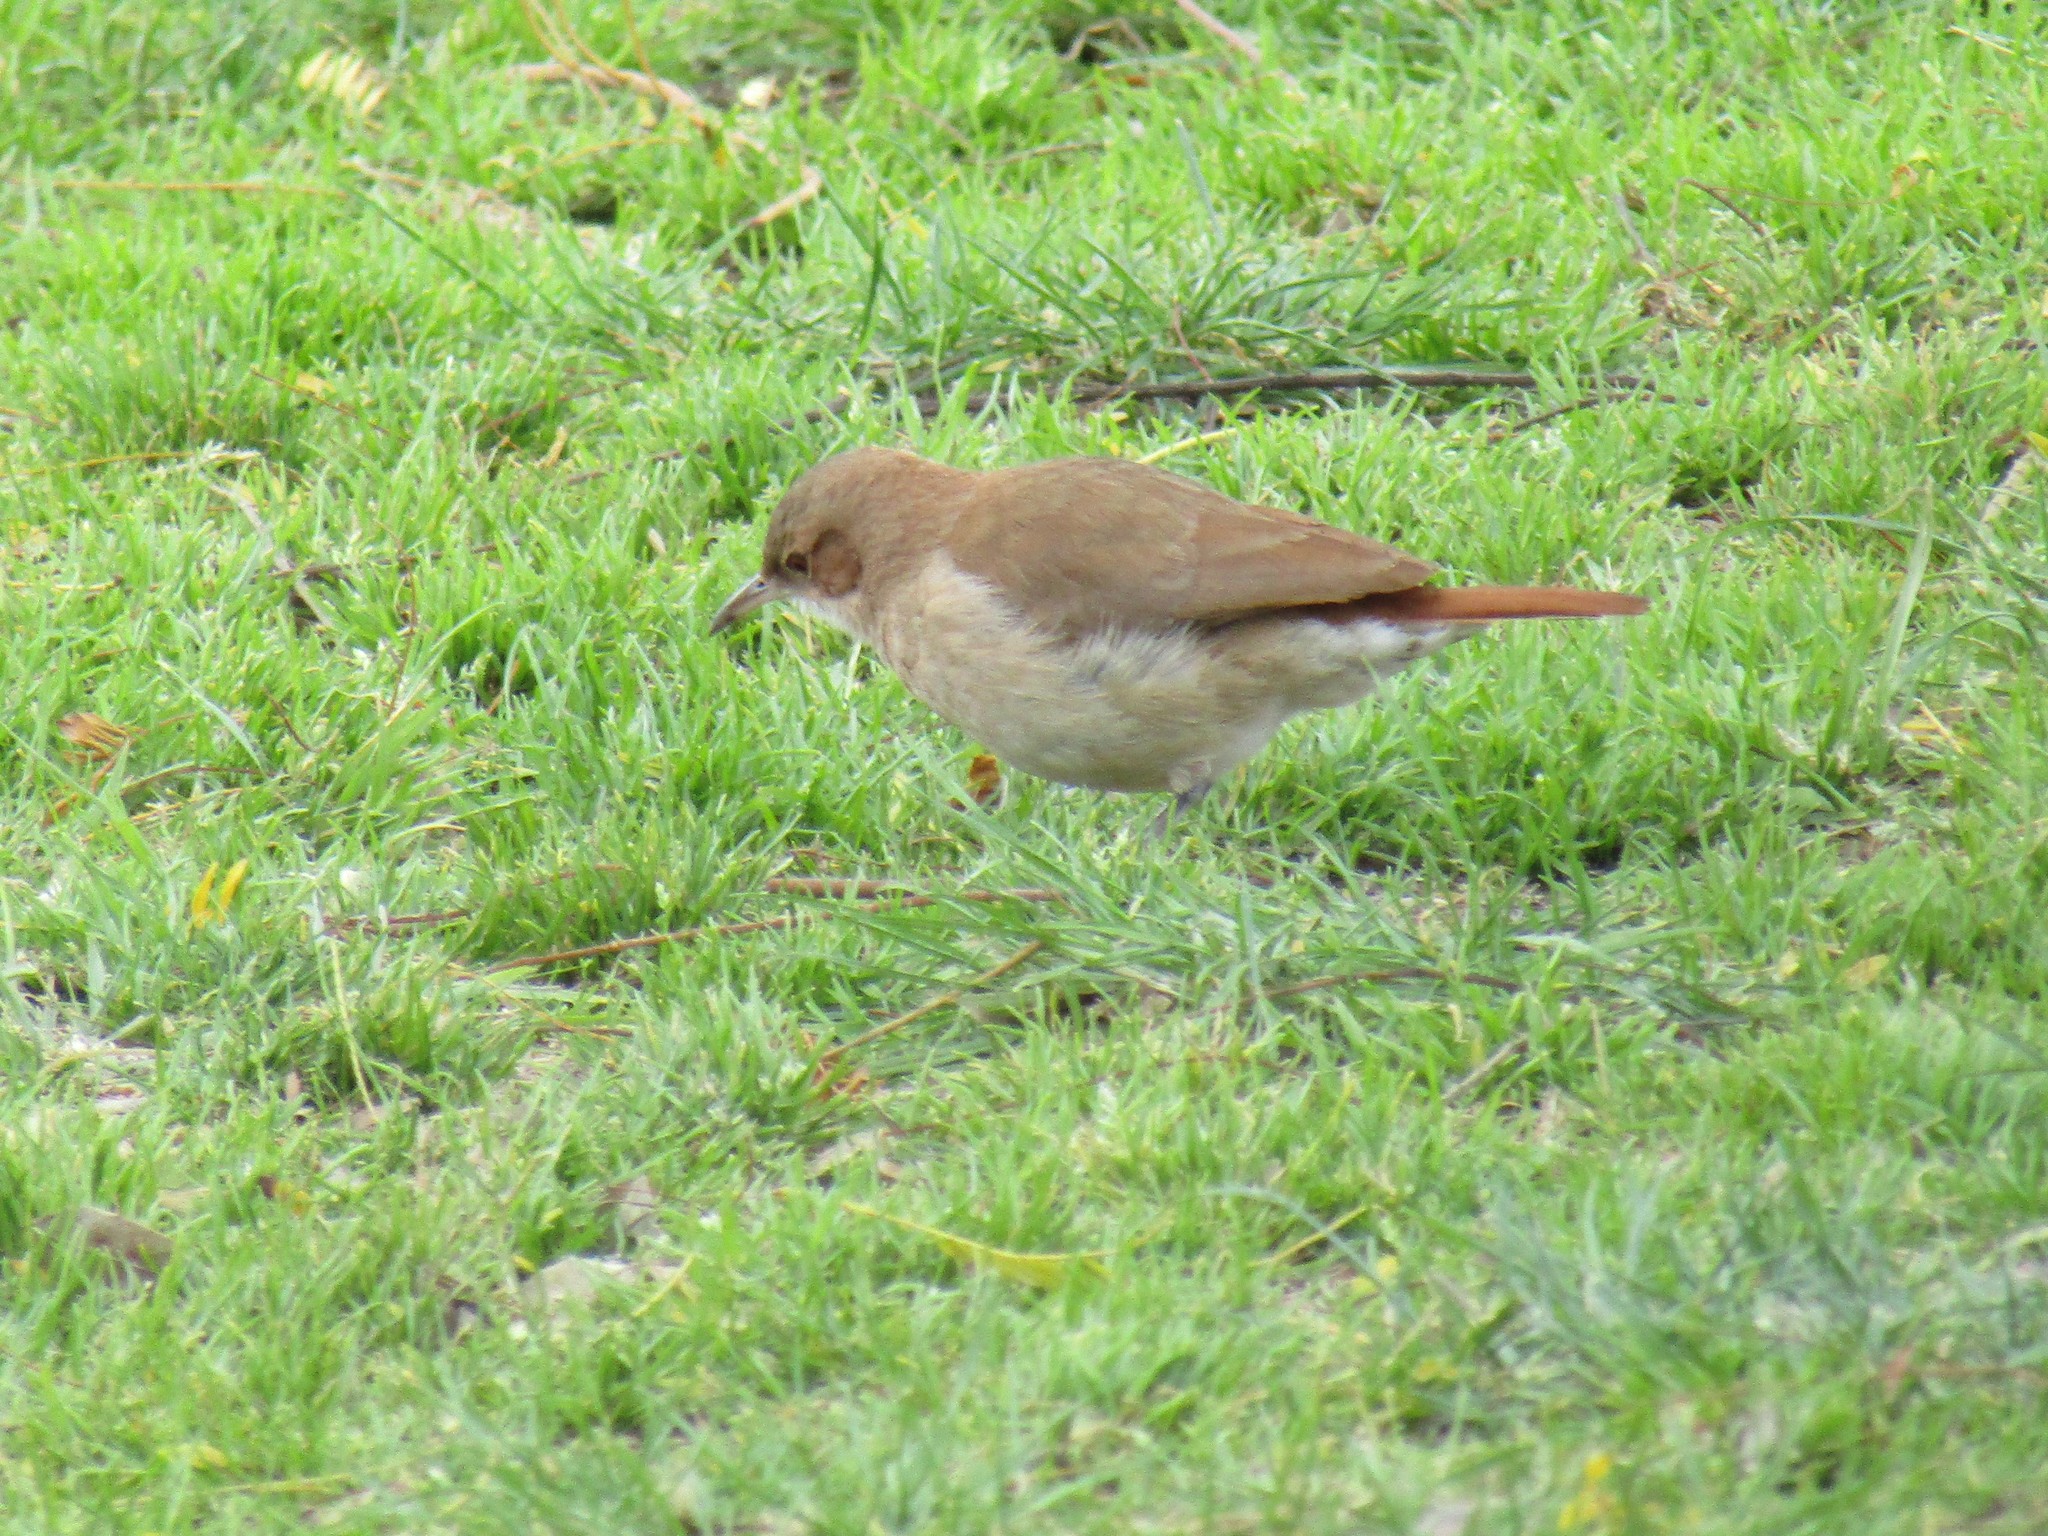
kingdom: Animalia
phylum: Chordata
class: Aves
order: Passeriformes
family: Furnariidae
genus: Furnarius
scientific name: Furnarius rufus
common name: Rufous hornero
